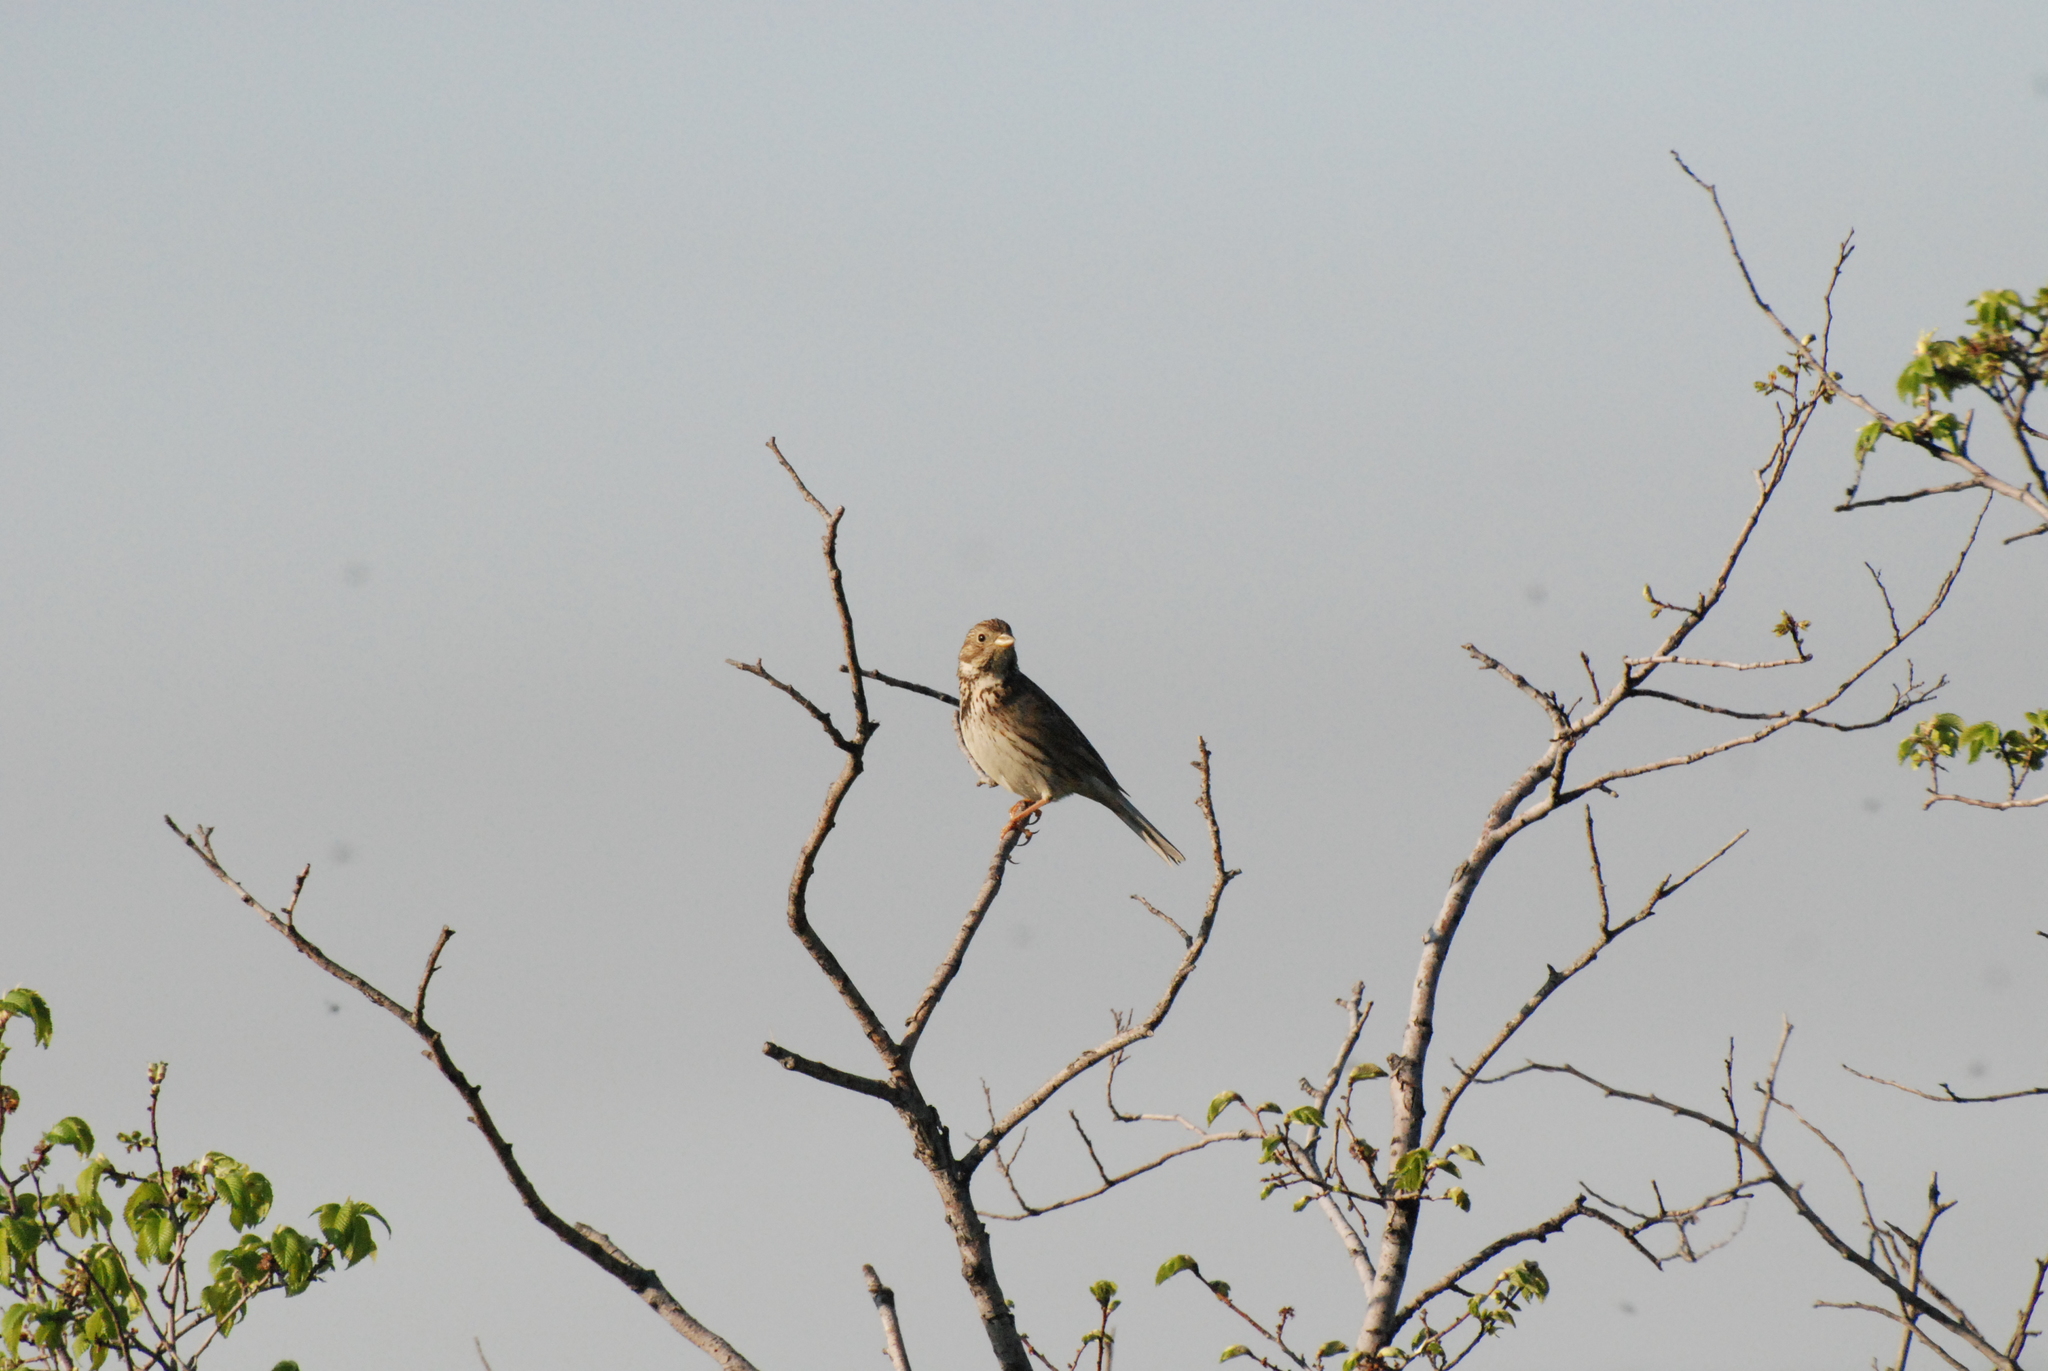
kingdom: Animalia
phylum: Chordata
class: Aves
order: Passeriformes
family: Emberizidae
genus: Emberiza
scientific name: Emberiza calandra
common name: Corn bunting
